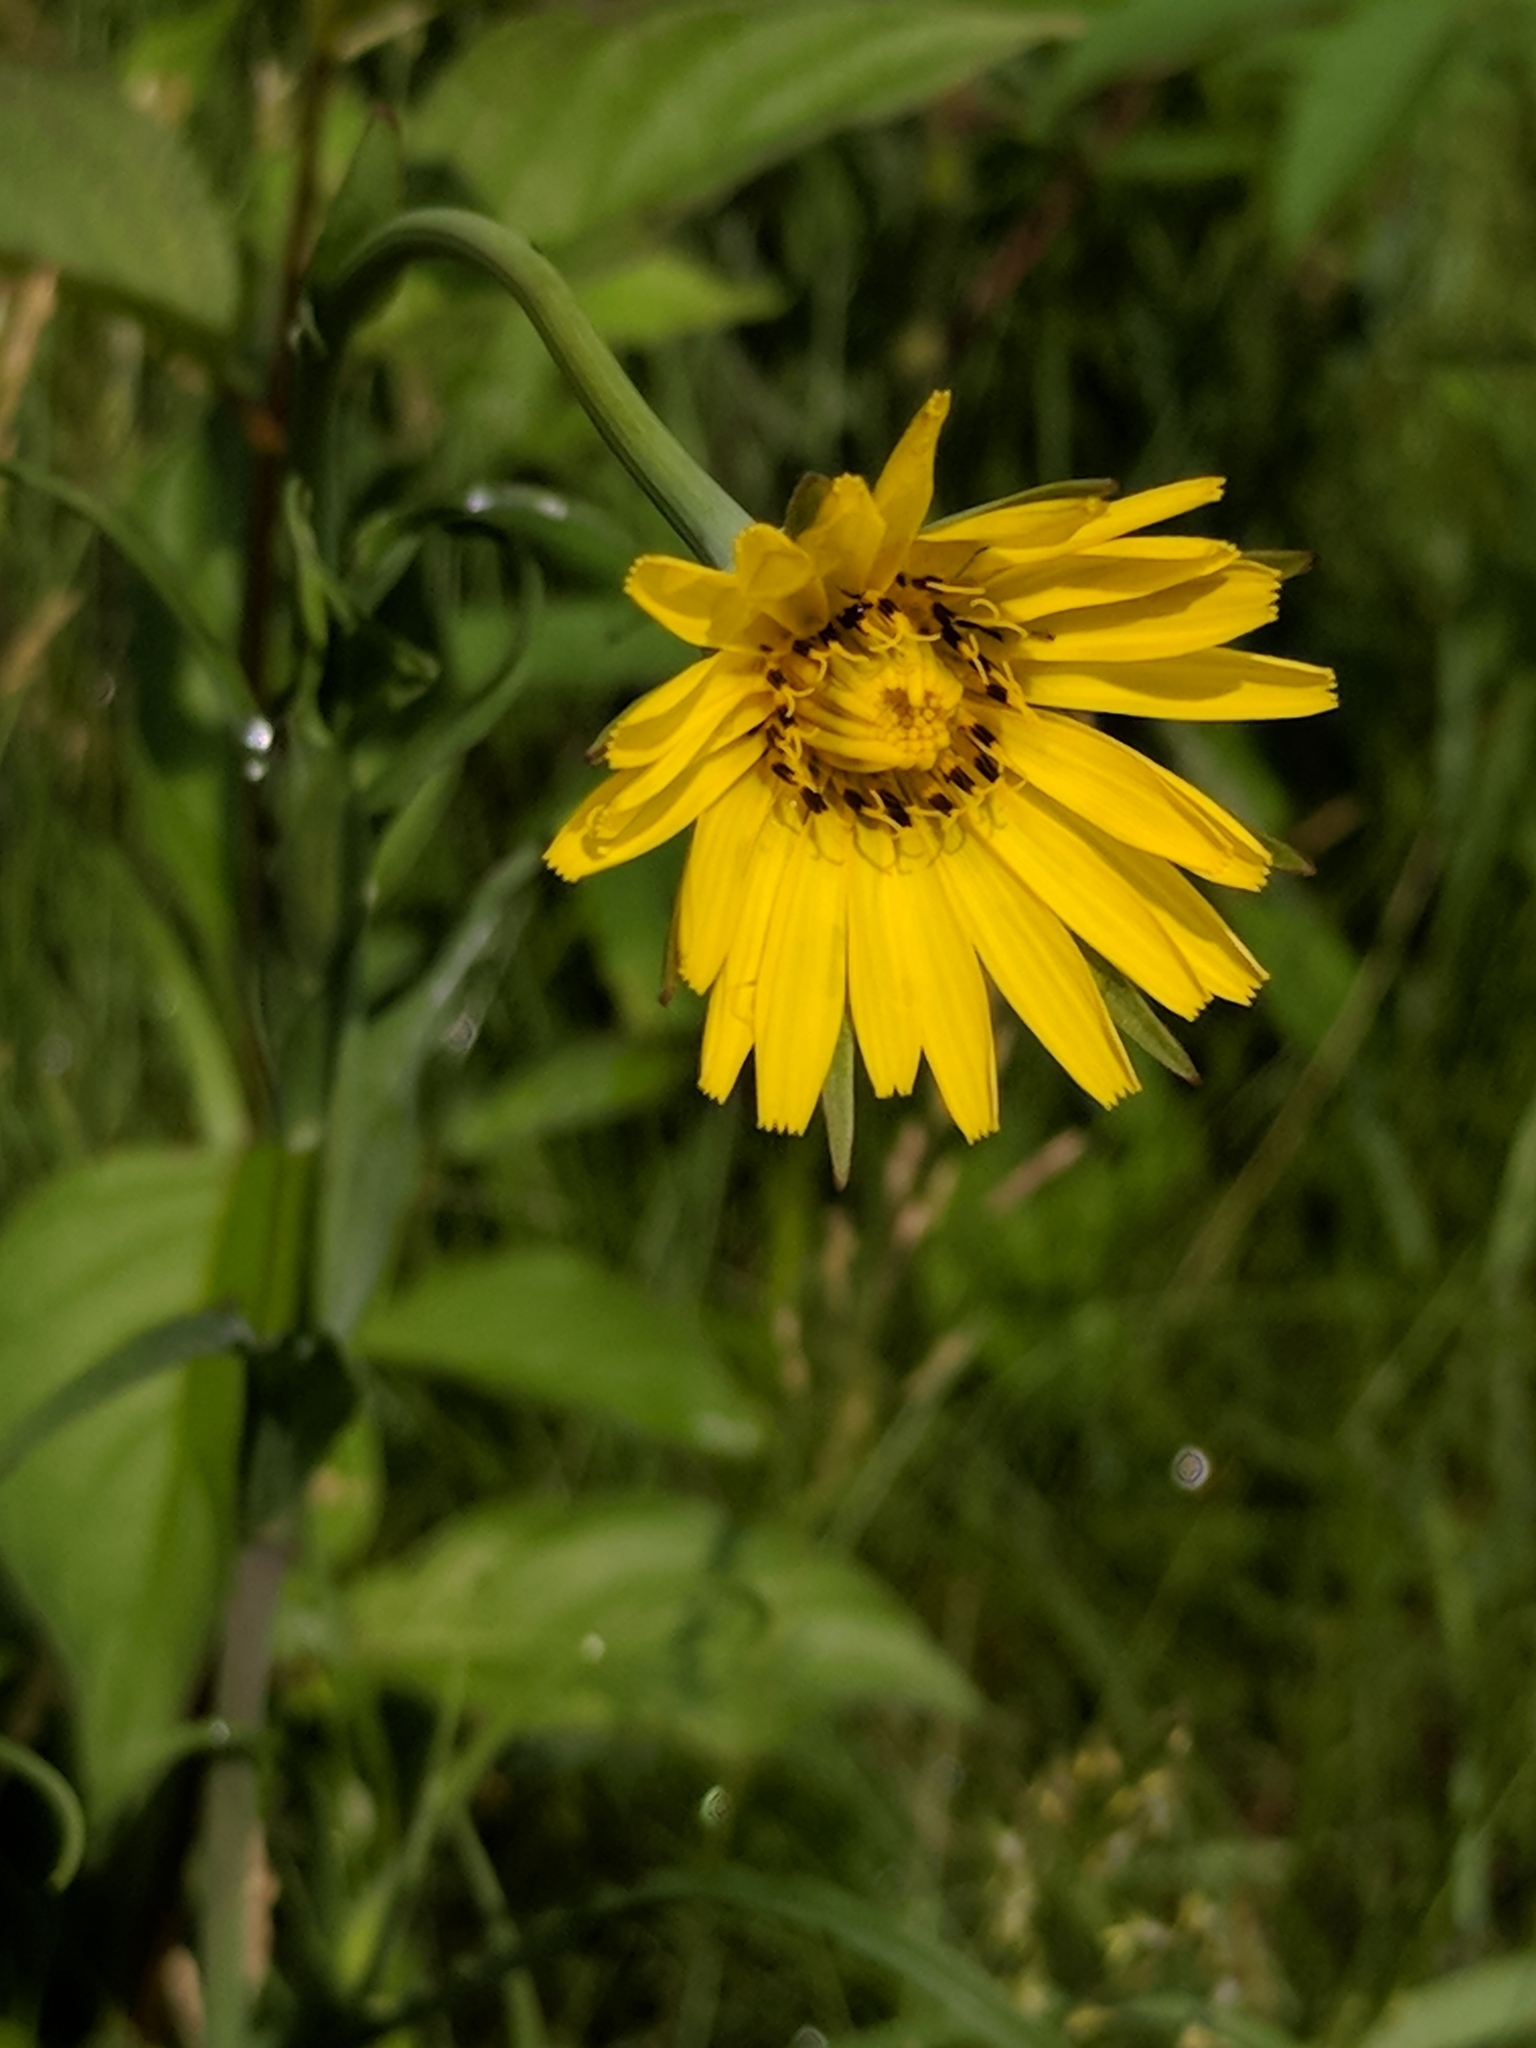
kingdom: Plantae
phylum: Tracheophyta
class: Magnoliopsida
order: Asterales
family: Asteraceae
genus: Tragopogon
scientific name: Tragopogon pratensis
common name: Goat's-beard
